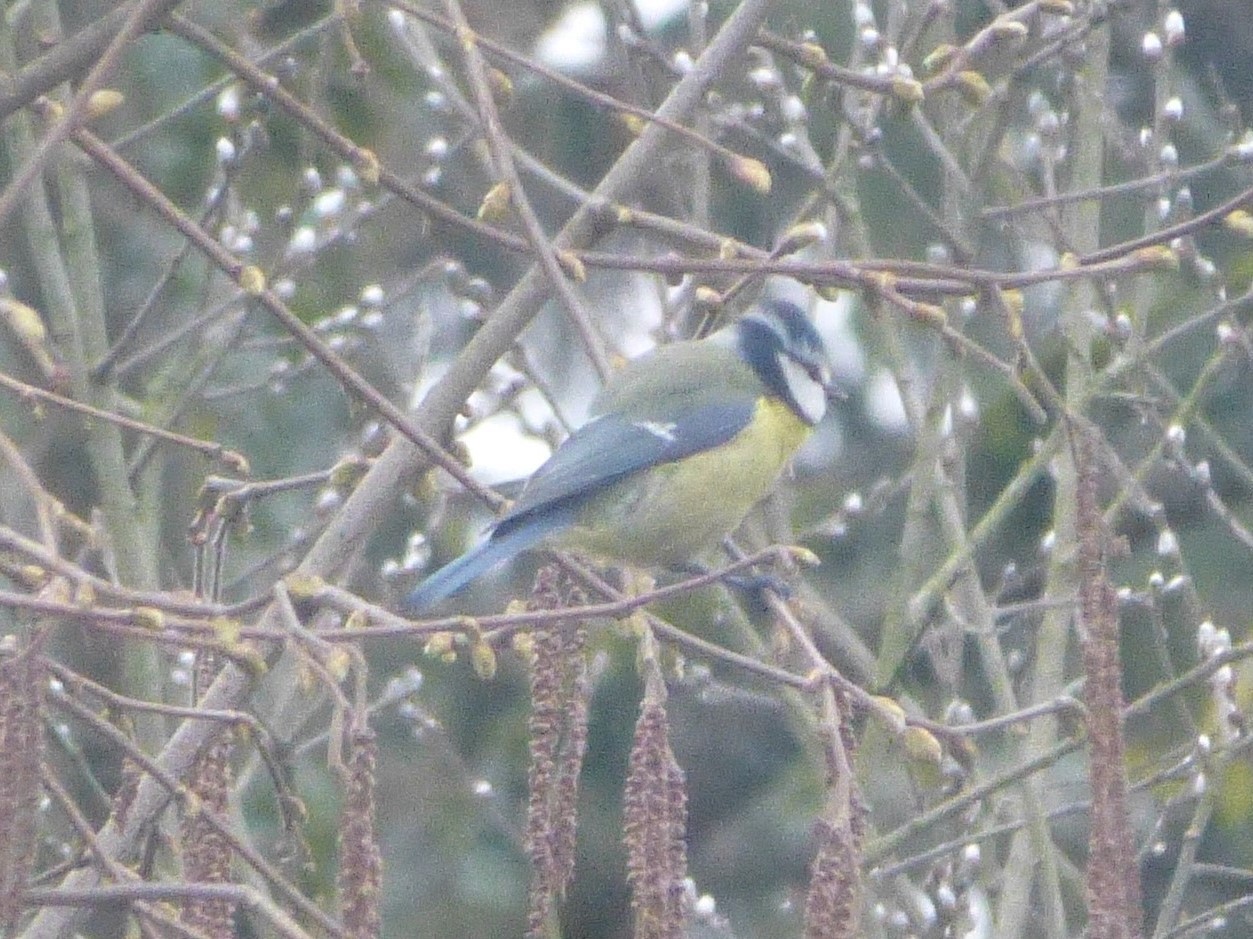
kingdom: Animalia
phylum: Chordata
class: Aves
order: Passeriformes
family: Paridae
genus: Cyanistes
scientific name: Cyanistes caeruleus
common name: Eurasian blue tit
